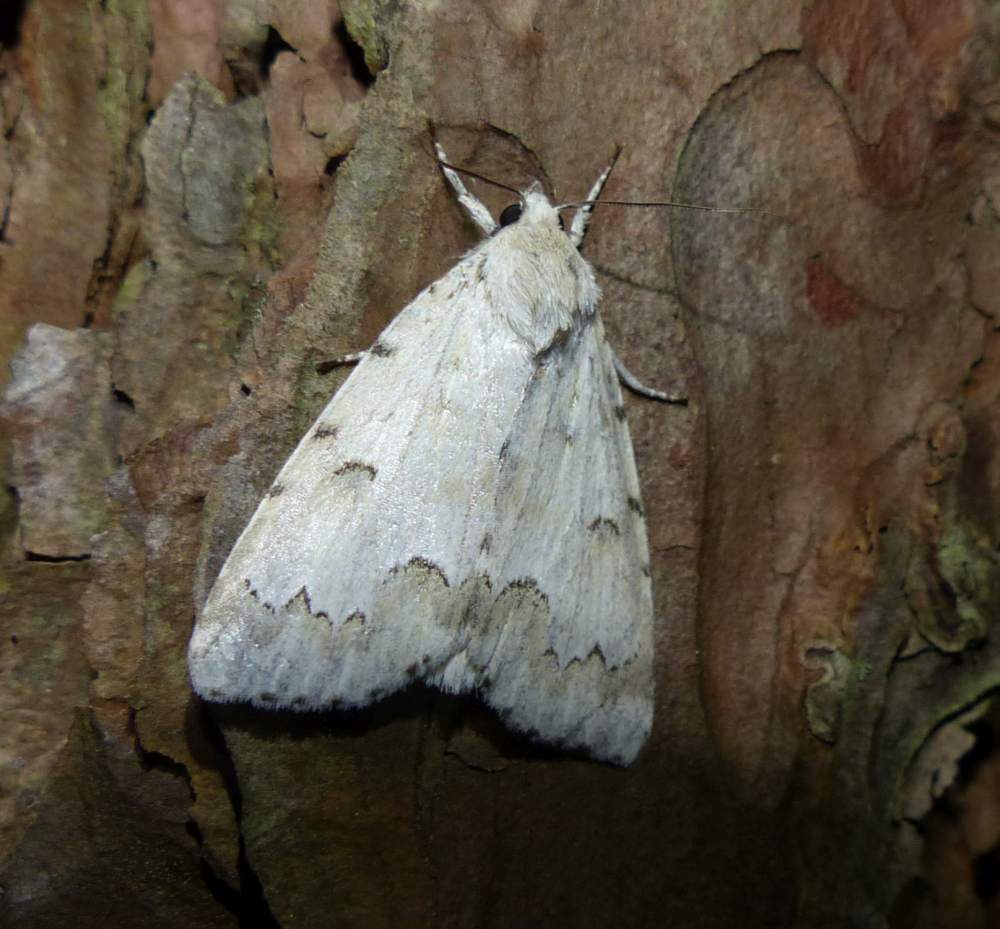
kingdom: Animalia
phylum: Arthropoda
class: Insecta
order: Lepidoptera
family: Noctuidae
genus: Acronicta
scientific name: Acronicta innotata
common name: Unmarked dagger
